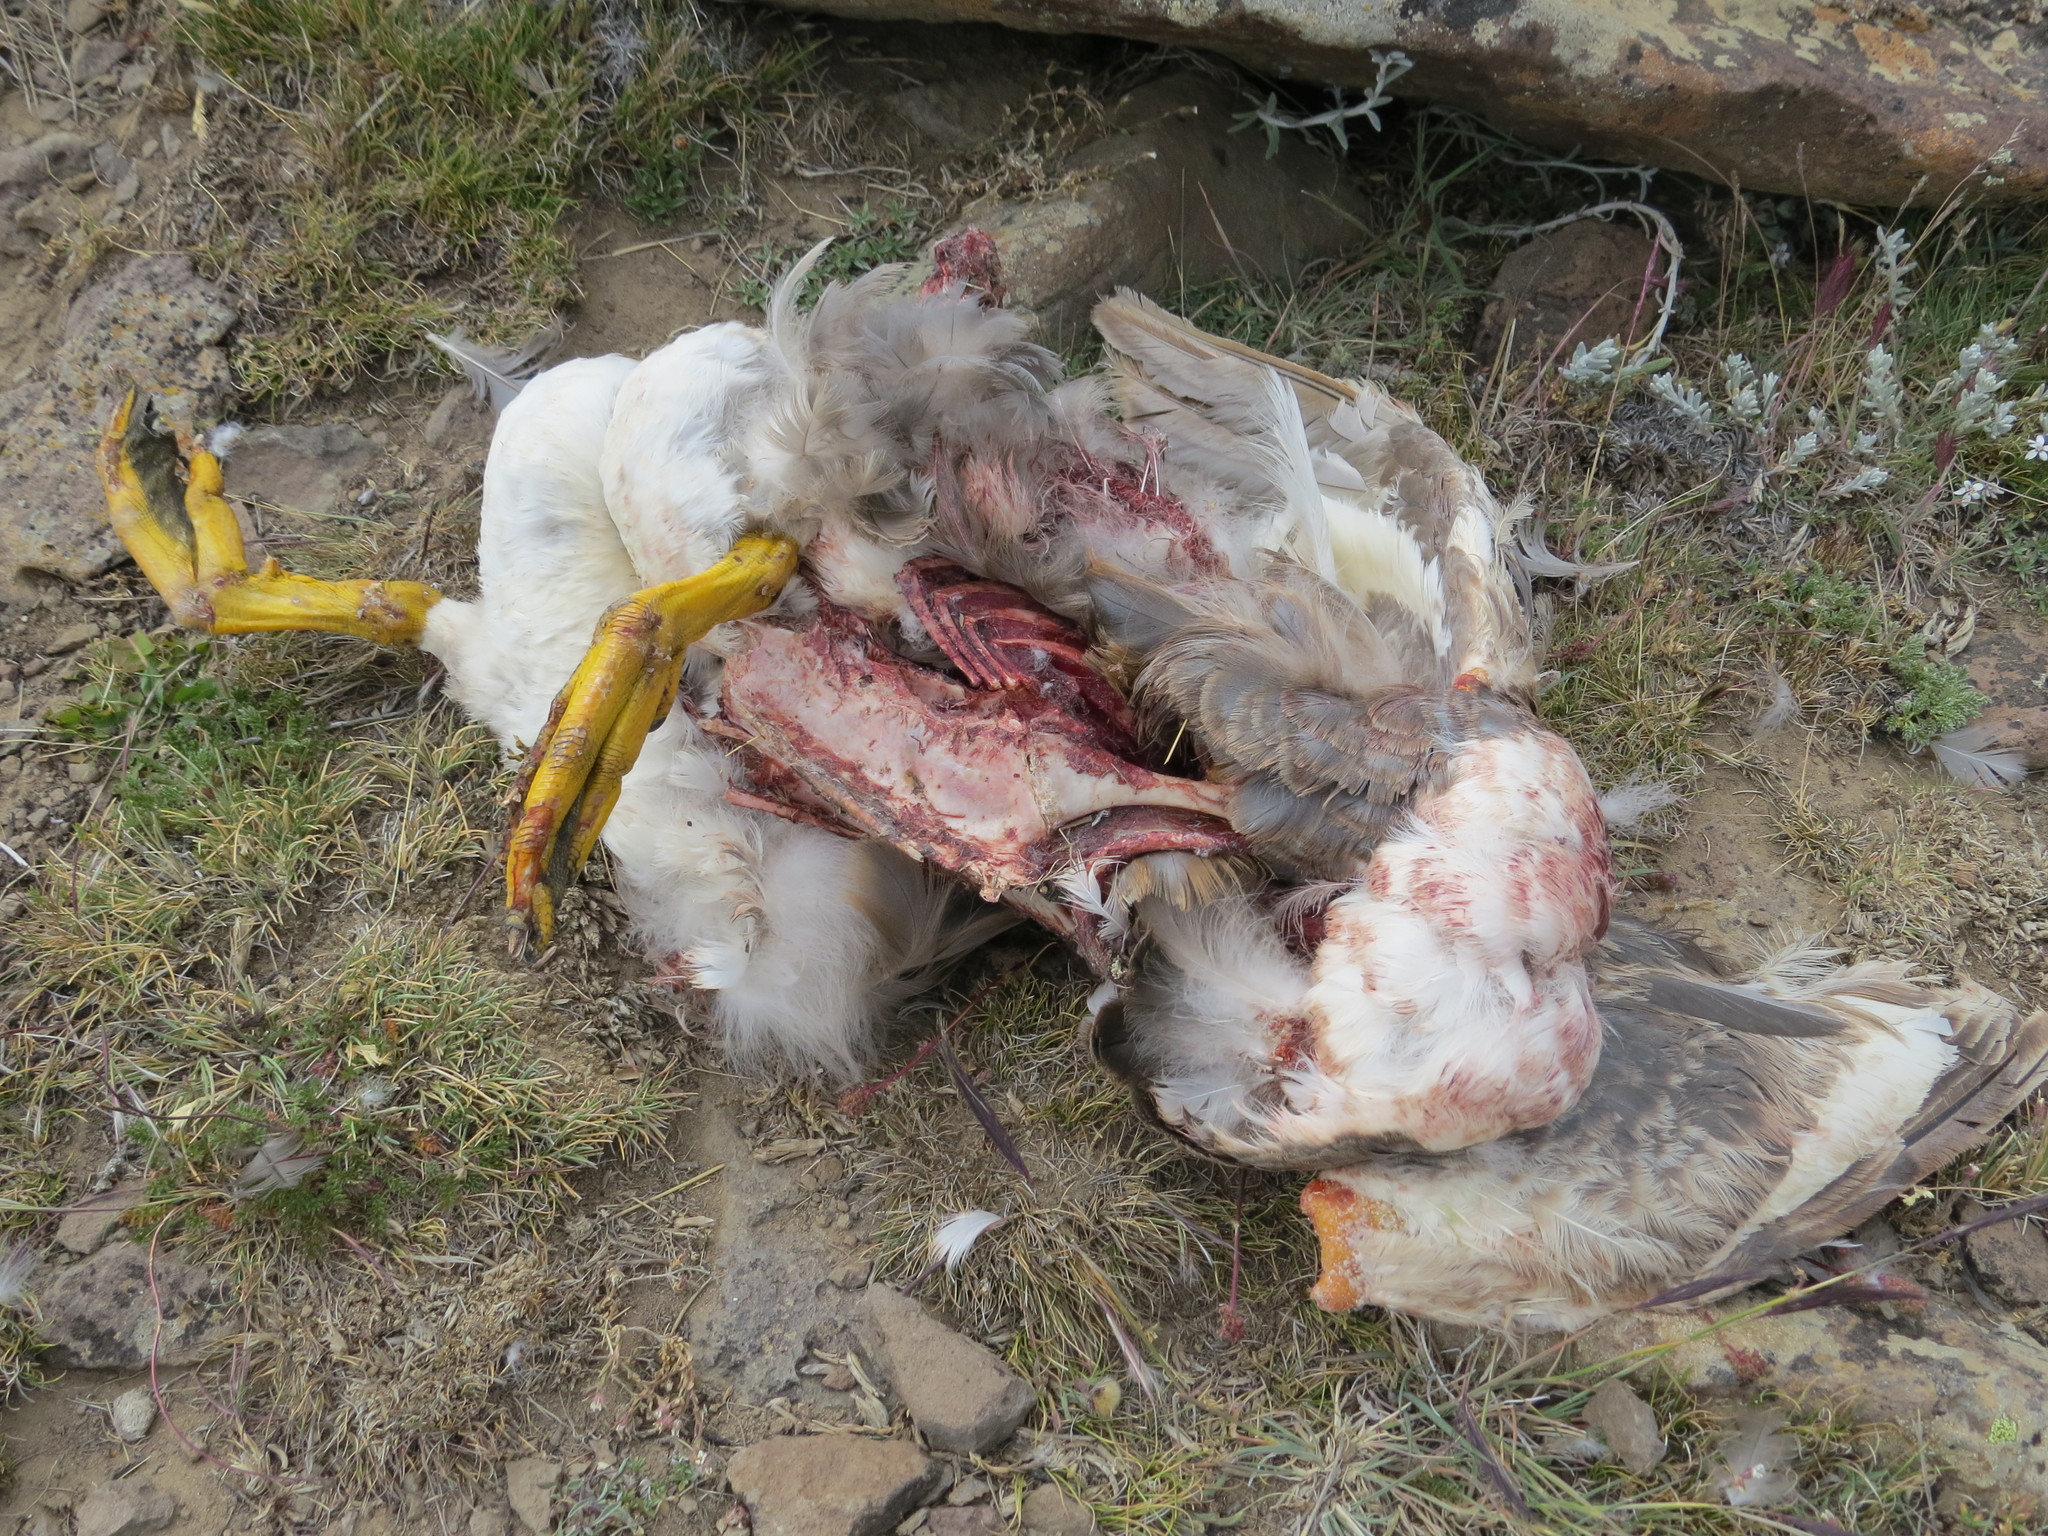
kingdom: Animalia
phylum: Chordata
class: Aves
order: Anseriformes
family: Anatidae
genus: Tachyeres
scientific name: Tachyeres patachonicus
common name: Flying steamer duck
